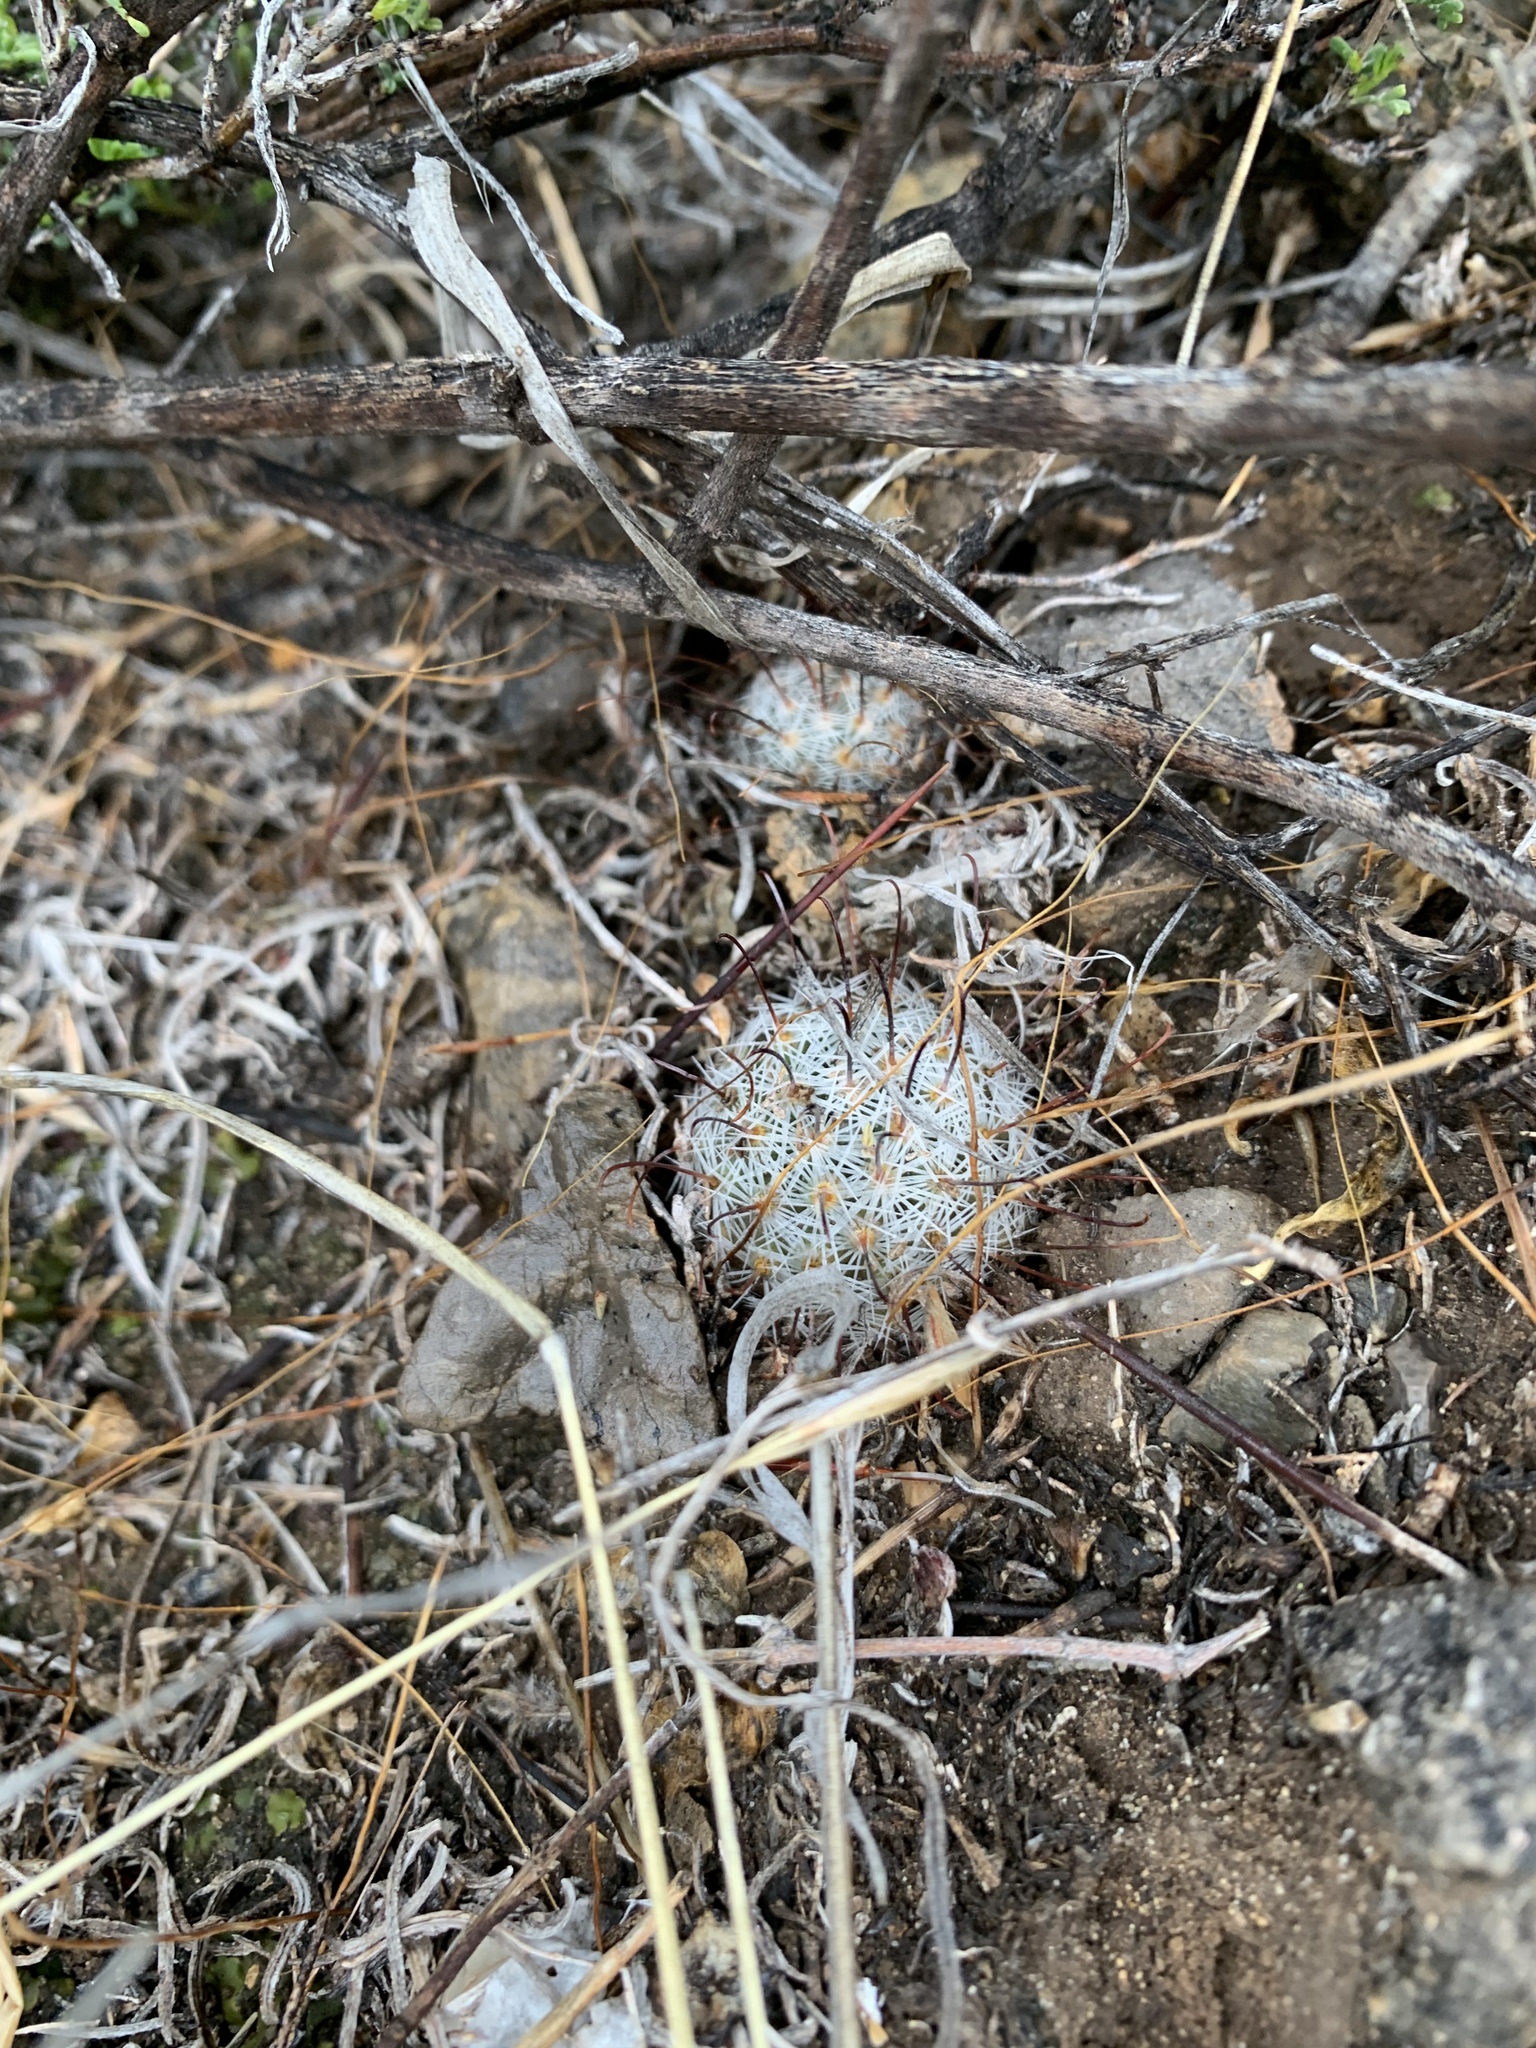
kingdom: Plantae
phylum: Tracheophyta
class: Magnoliopsida
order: Caryophyllales
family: Cactaceae
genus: Cochemiea
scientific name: Cochemiea grahamii
